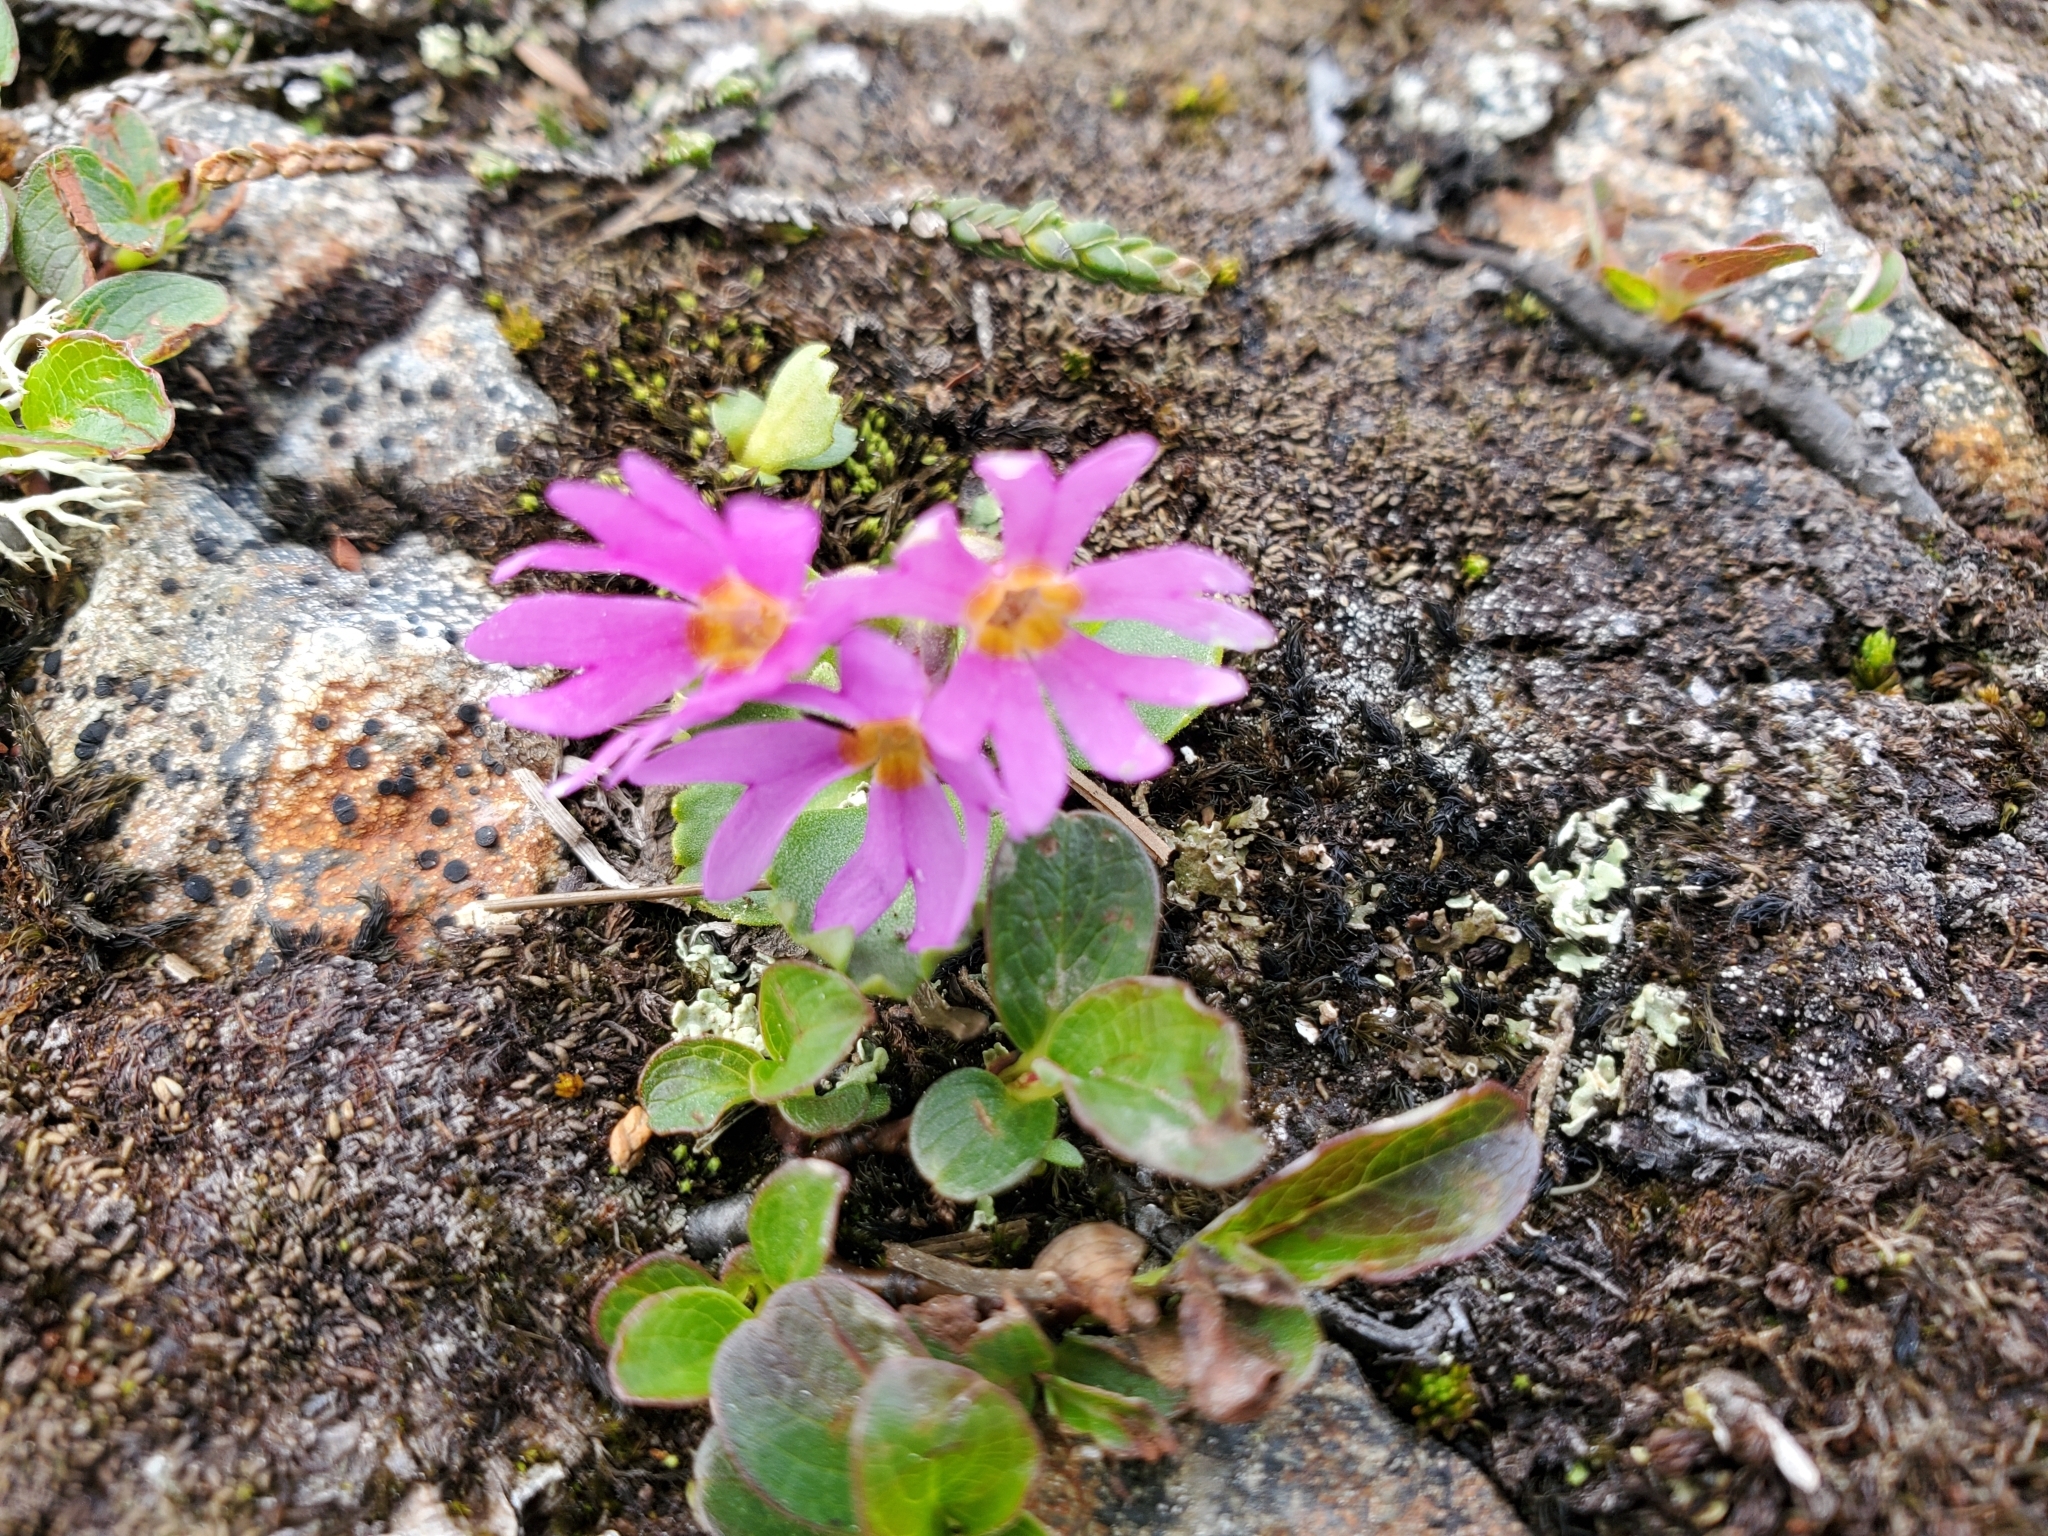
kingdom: Plantae
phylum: Tracheophyta
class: Magnoliopsida
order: Ericales
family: Primulaceae
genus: Primula
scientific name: Primula cuneifolia
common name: Wedge-leaved primrose
